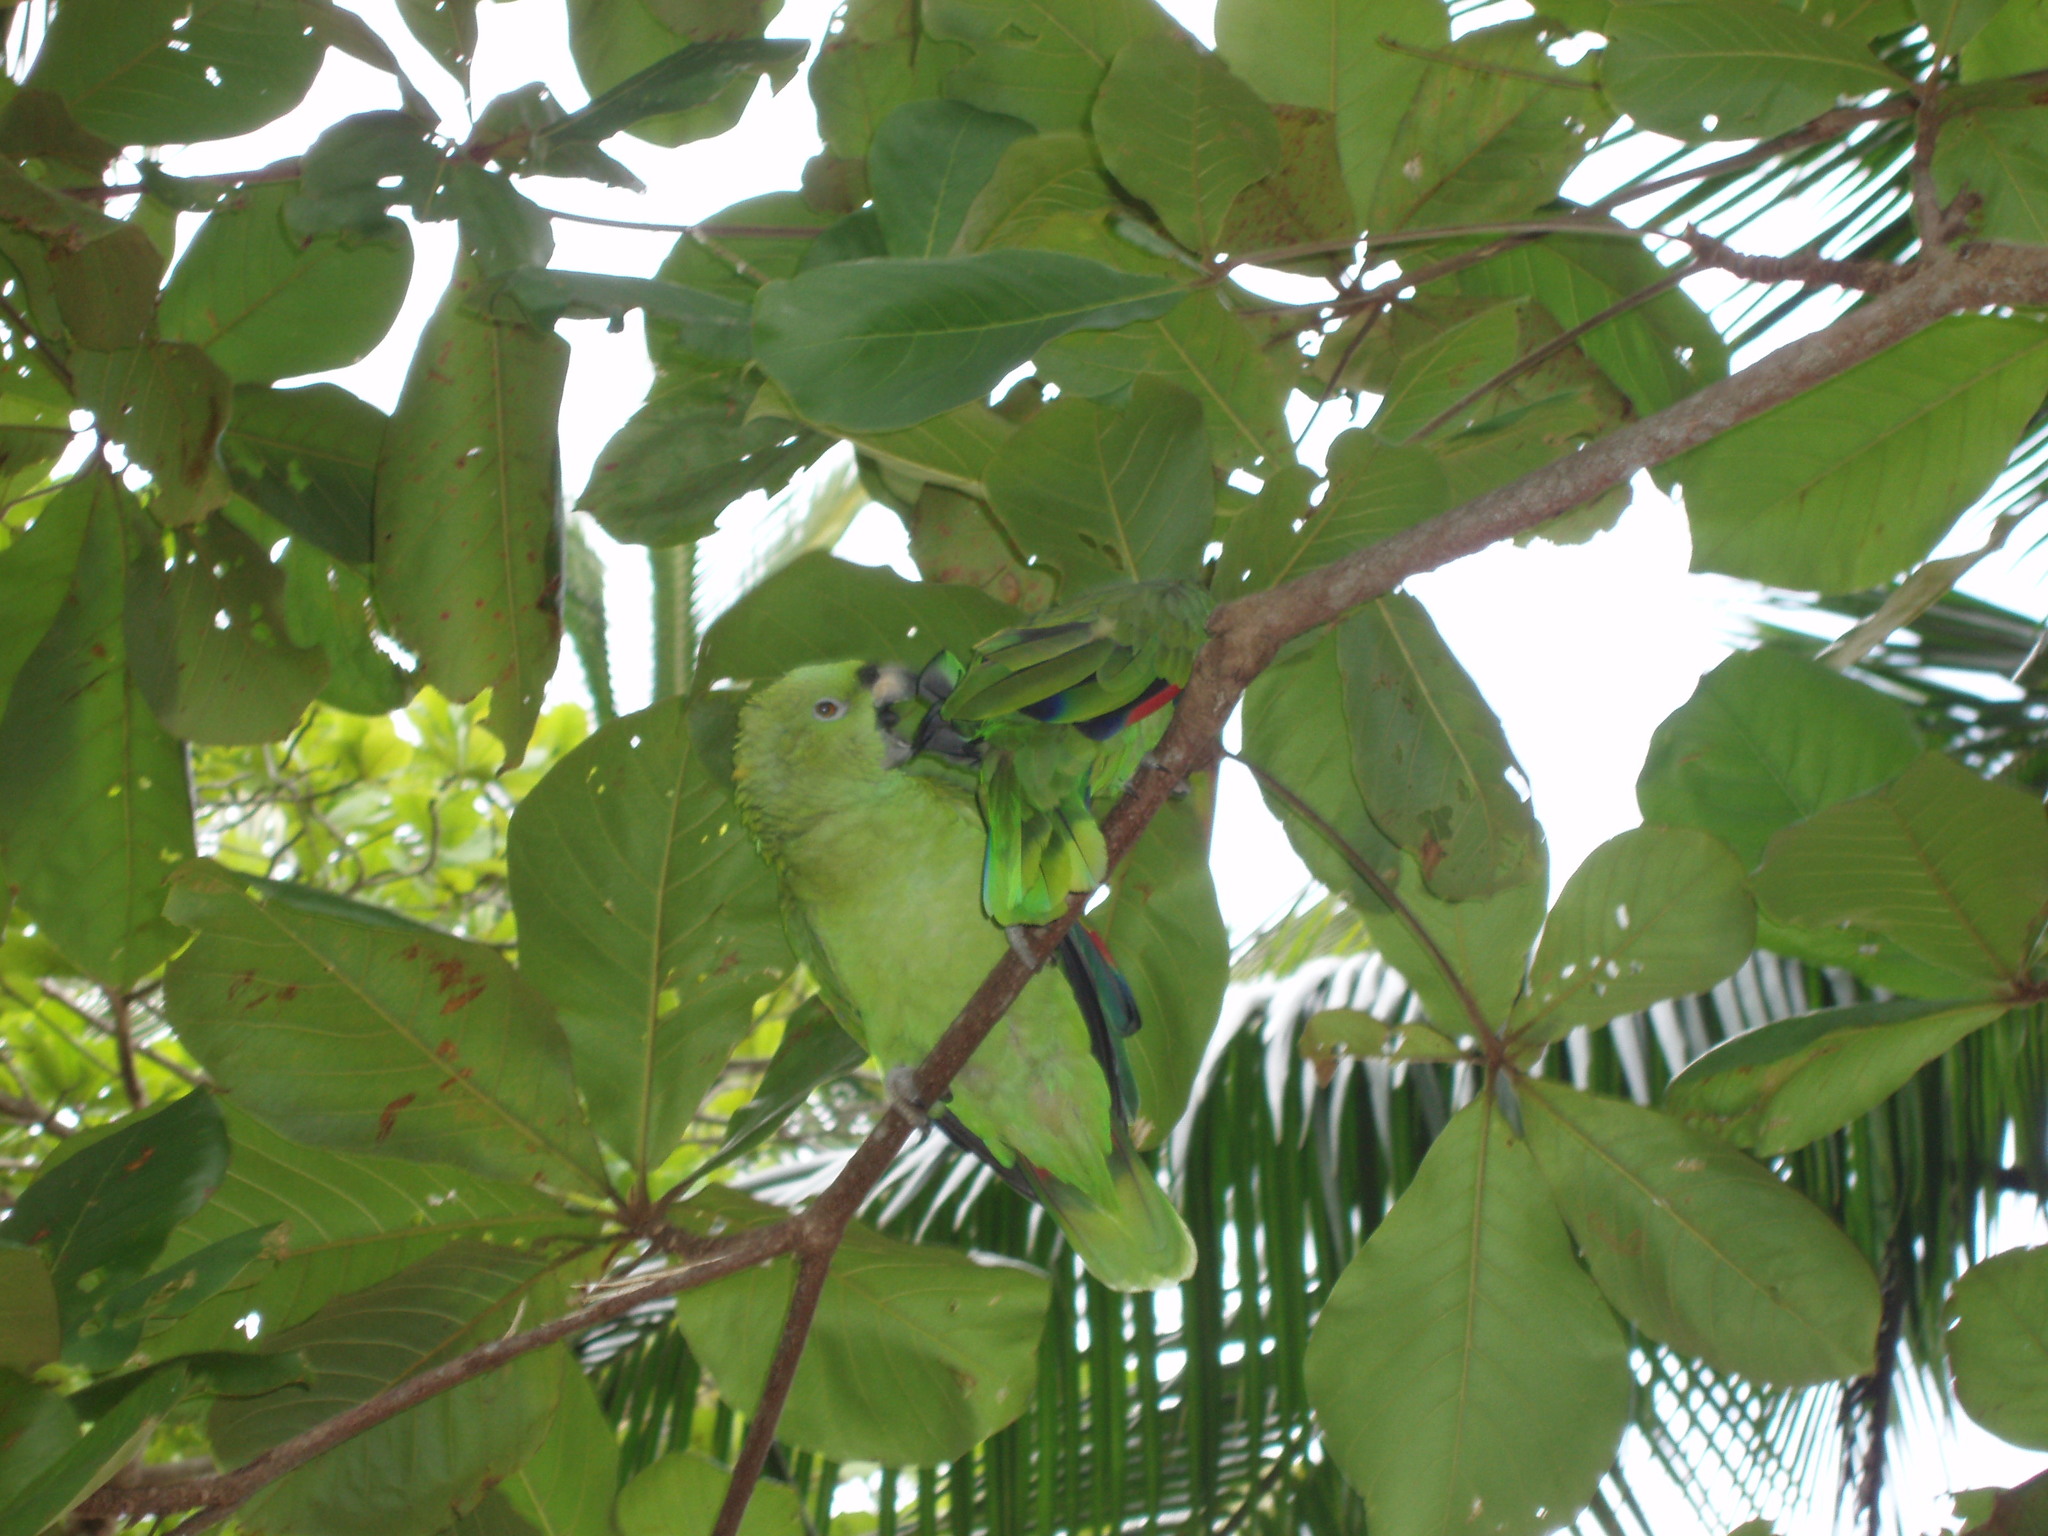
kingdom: Animalia
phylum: Chordata
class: Aves
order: Psittaciformes
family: Psittacidae
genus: Amazona
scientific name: Amazona farinosa
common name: Mealy parrot
